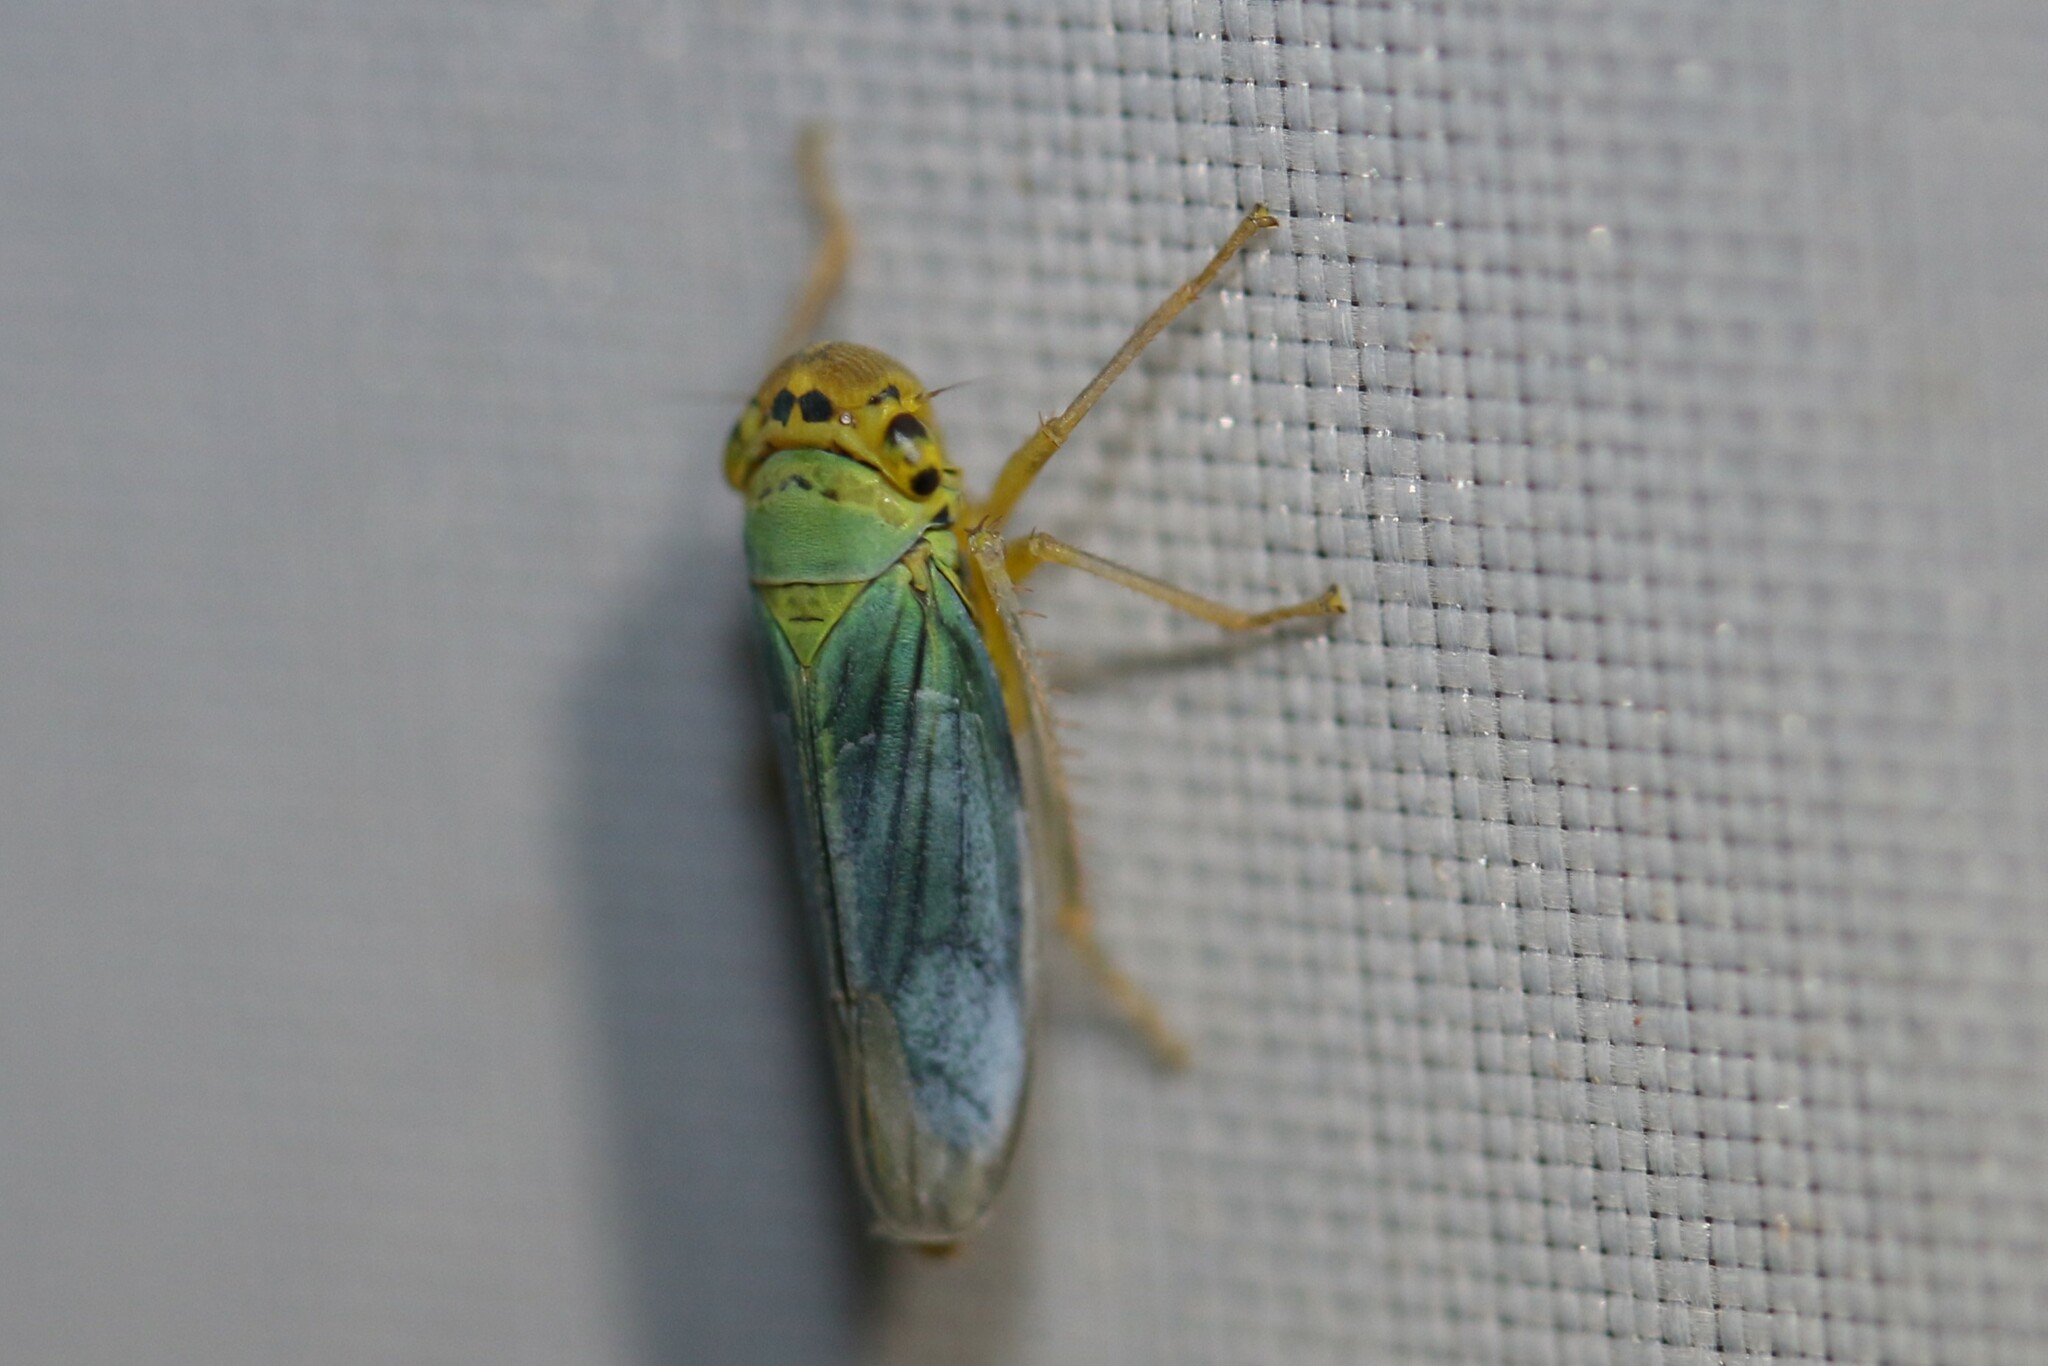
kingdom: Animalia
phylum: Arthropoda
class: Insecta
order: Hemiptera
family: Cicadellidae
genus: Cicadella
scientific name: Cicadella viridis
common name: Leafhopper
